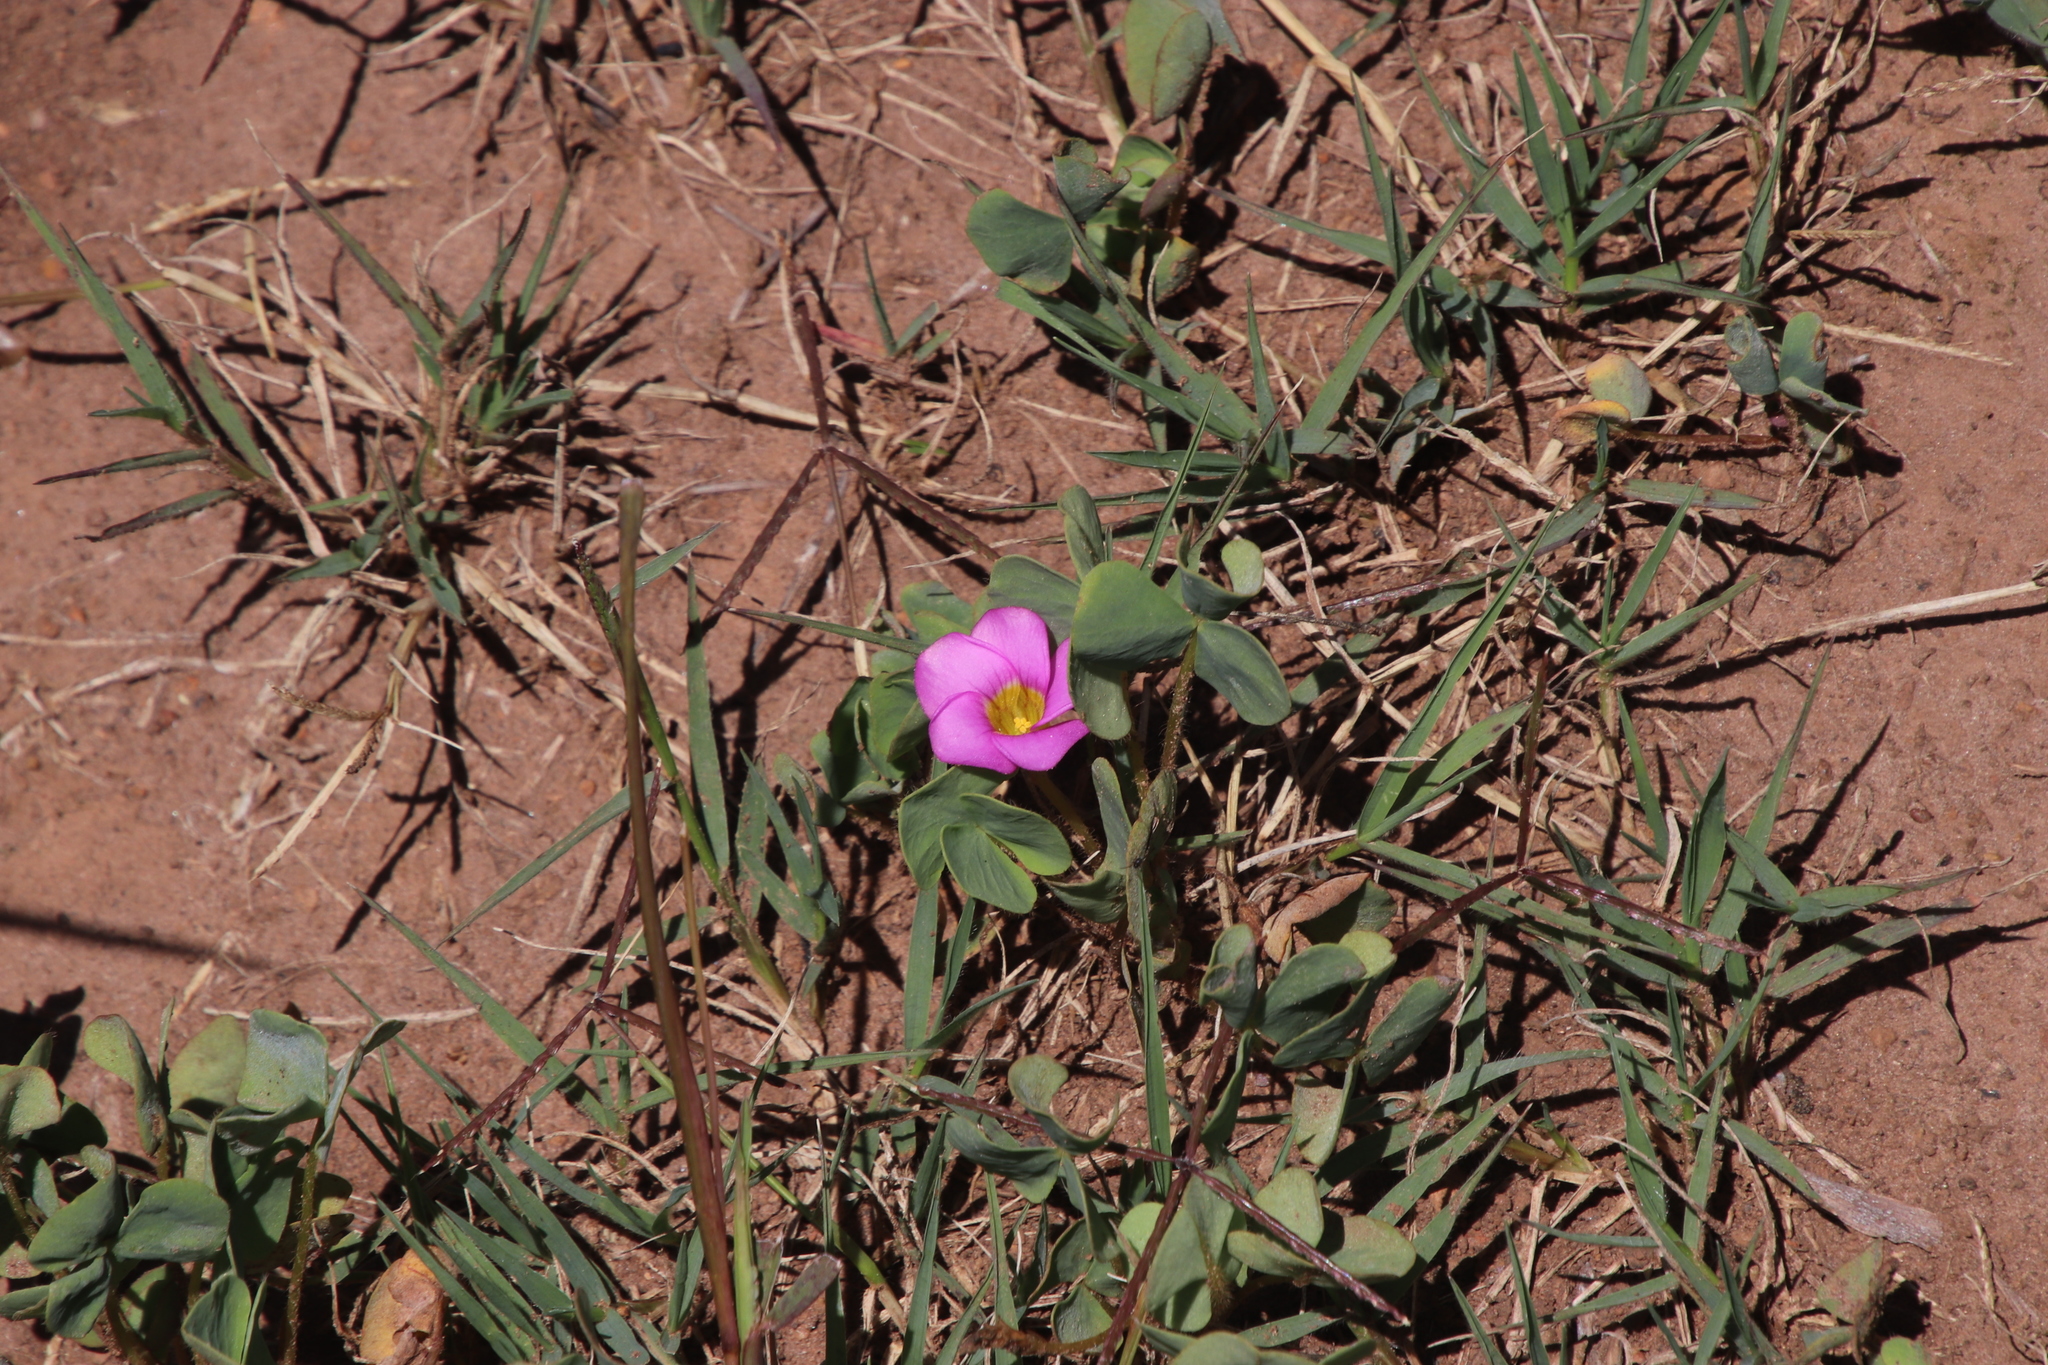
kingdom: Plantae
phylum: Tracheophyta
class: Magnoliopsida
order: Oxalidales
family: Oxalidaceae
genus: Oxalis
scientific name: Oxalis obliquifolia
